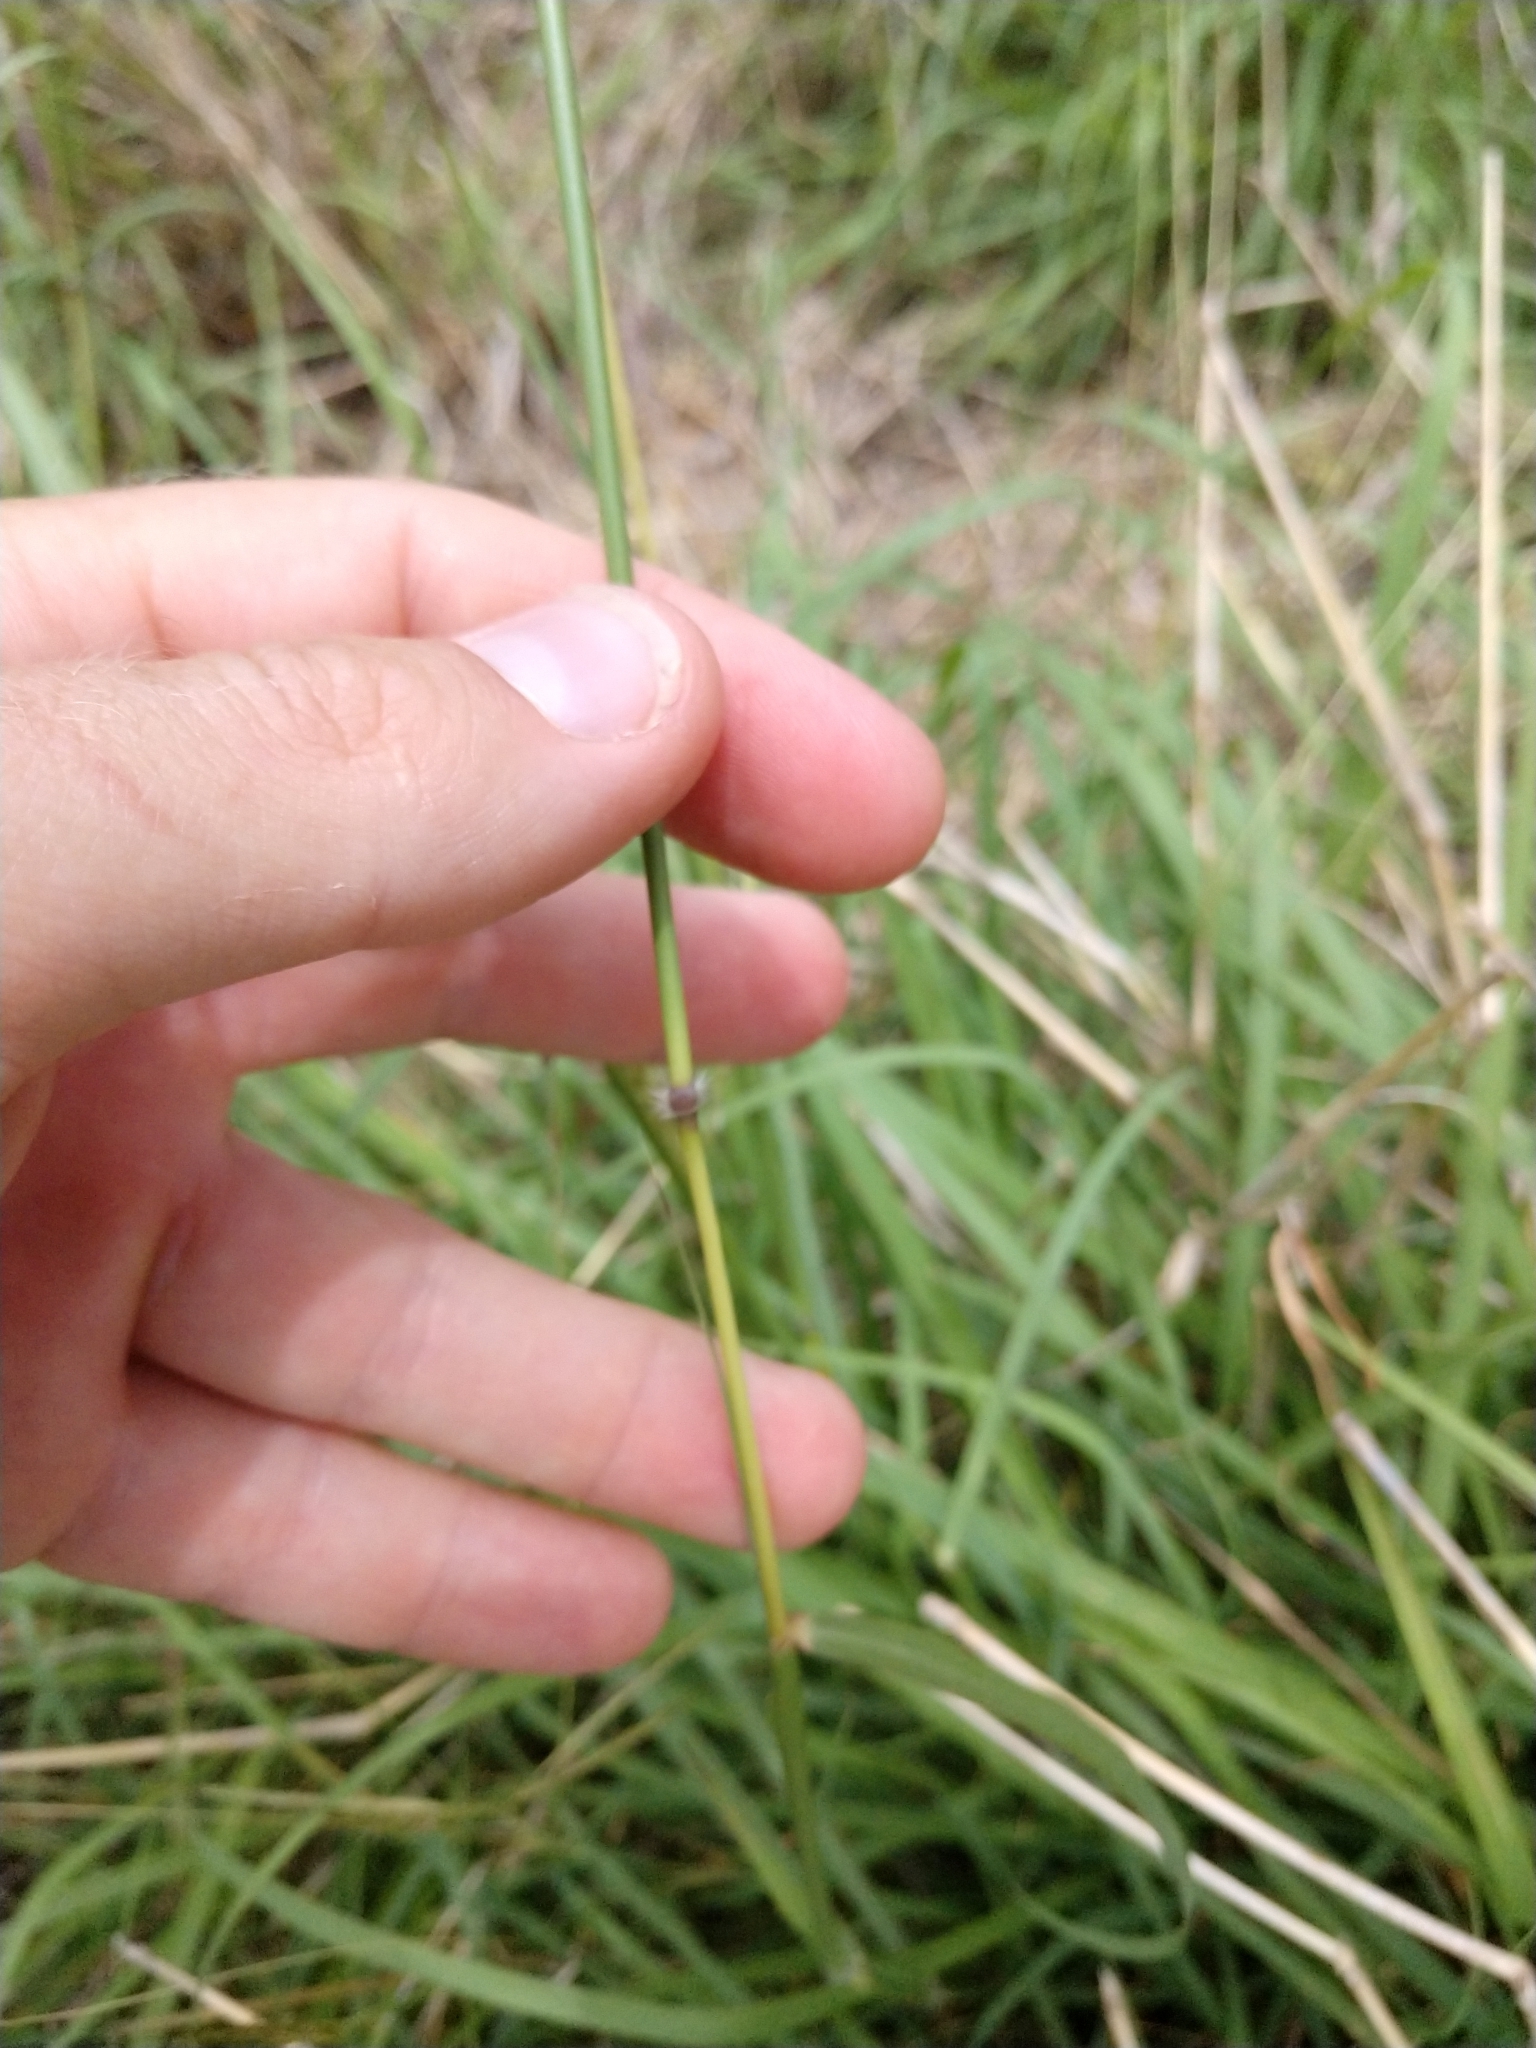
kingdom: Plantae
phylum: Tracheophyta
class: Liliopsida
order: Poales
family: Poaceae
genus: Bothriochloa
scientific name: Bothriochloa bladhii
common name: Caucasian bluestem
